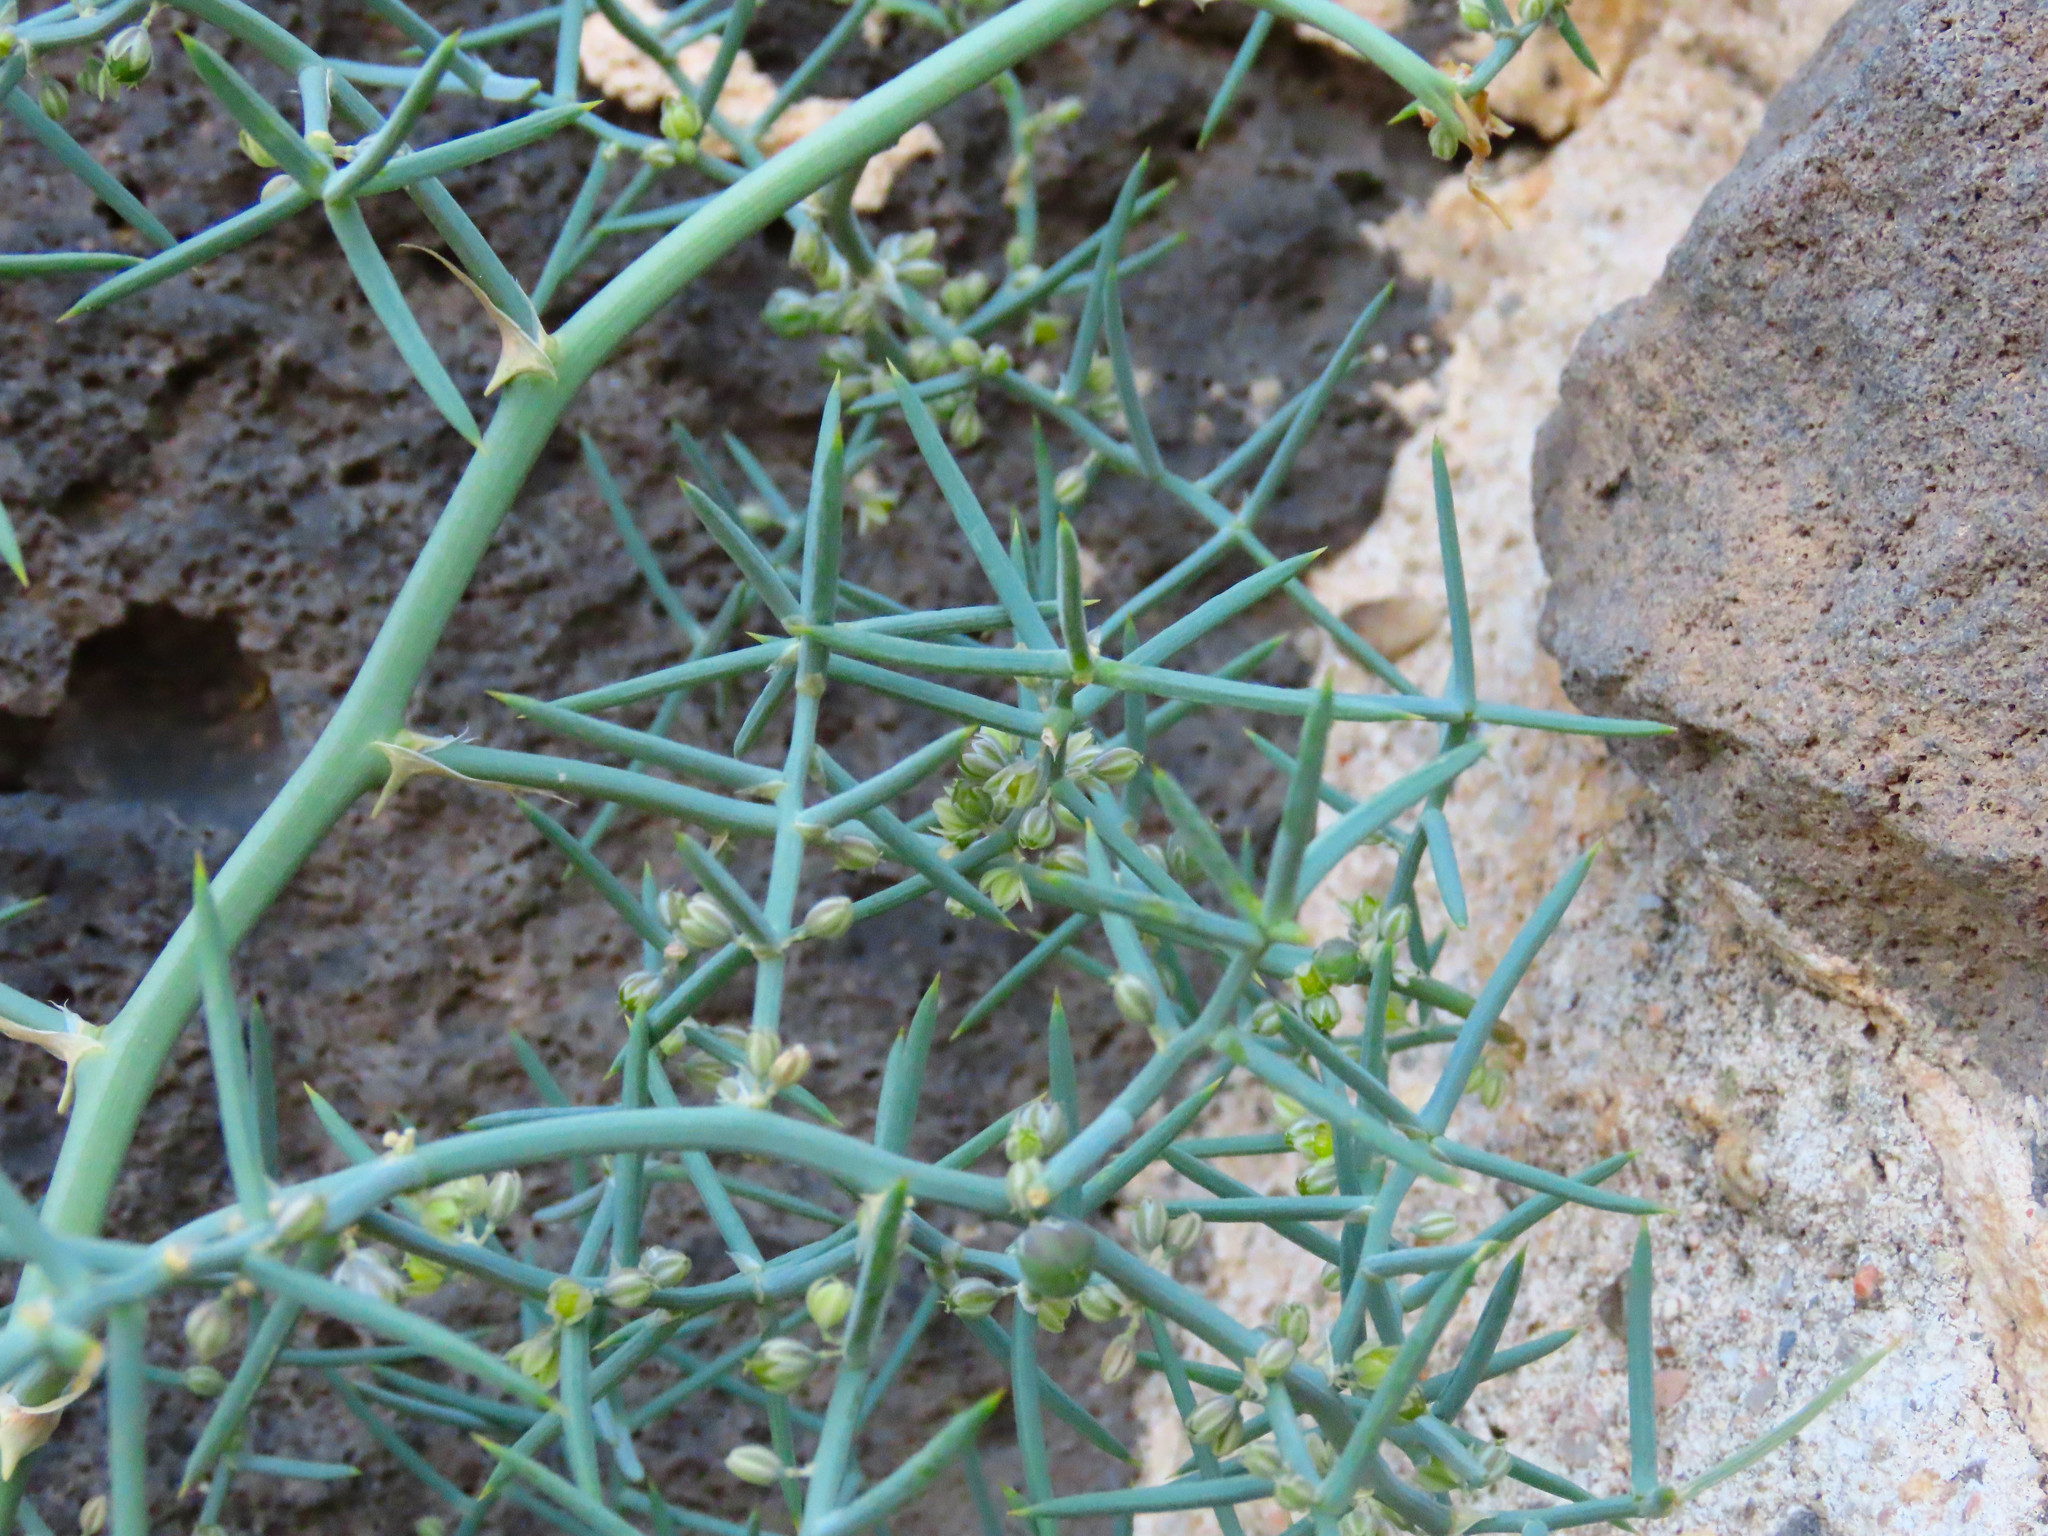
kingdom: Plantae
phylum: Tracheophyta
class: Liliopsida
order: Asparagales
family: Asparagaceae
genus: Asparagus
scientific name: Asparagus horridus
